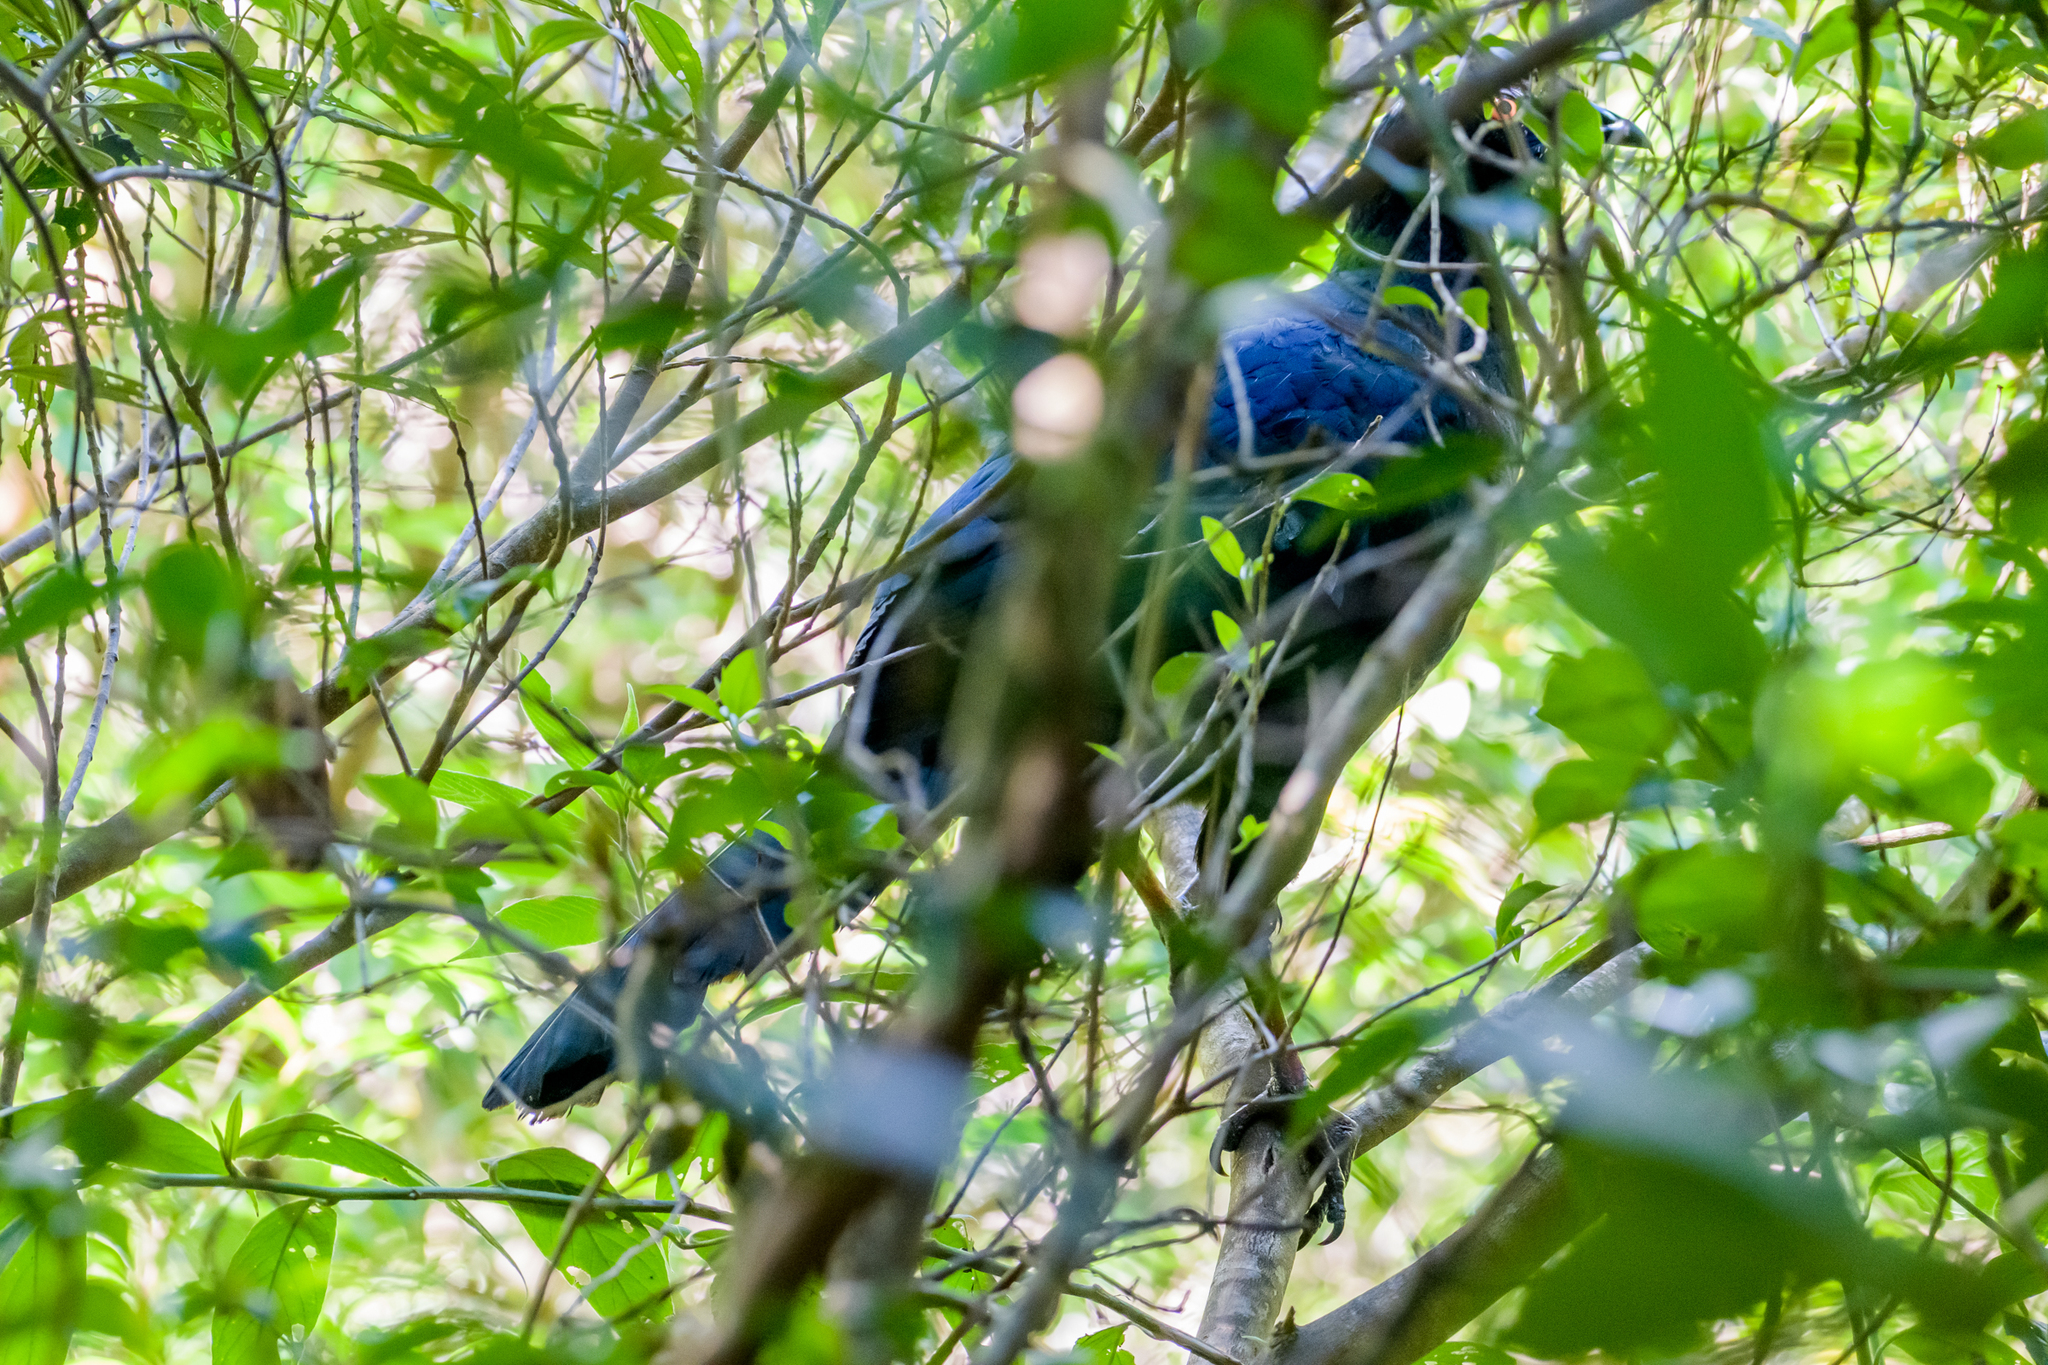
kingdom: Animalia
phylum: Chordata
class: Aves
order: Galliformes
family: Cracidae
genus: Chamaepetes
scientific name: Chamaepetes unicolor
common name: Black guan
